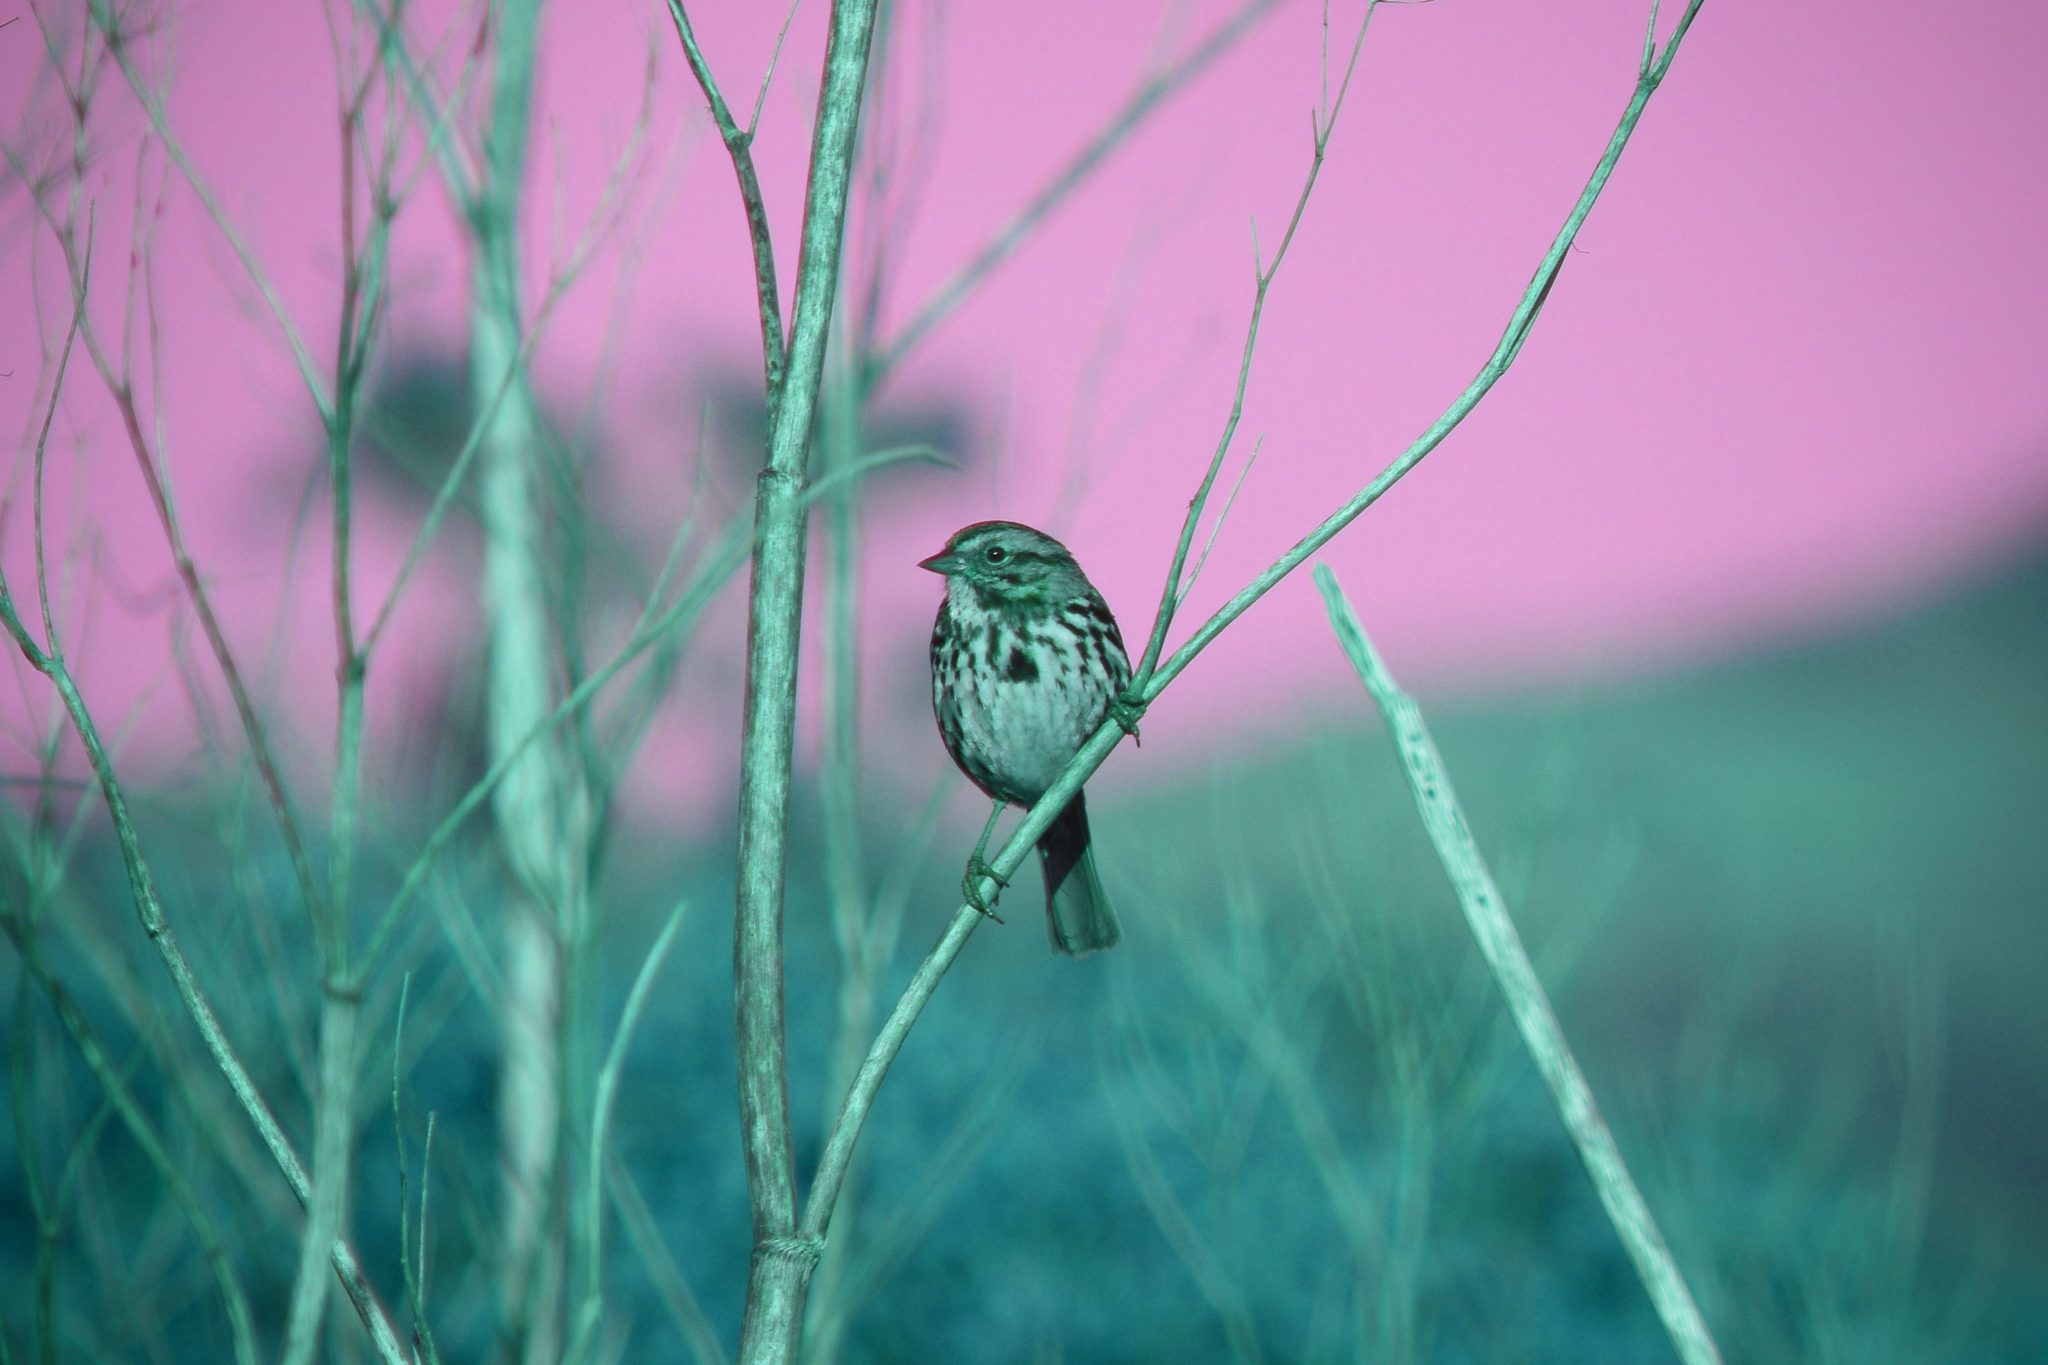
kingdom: Animalia
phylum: Chordata
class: Aves
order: Passeriformes
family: Passerellidae
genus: Melospiza
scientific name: Melospiza melodia
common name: Song sparrow
